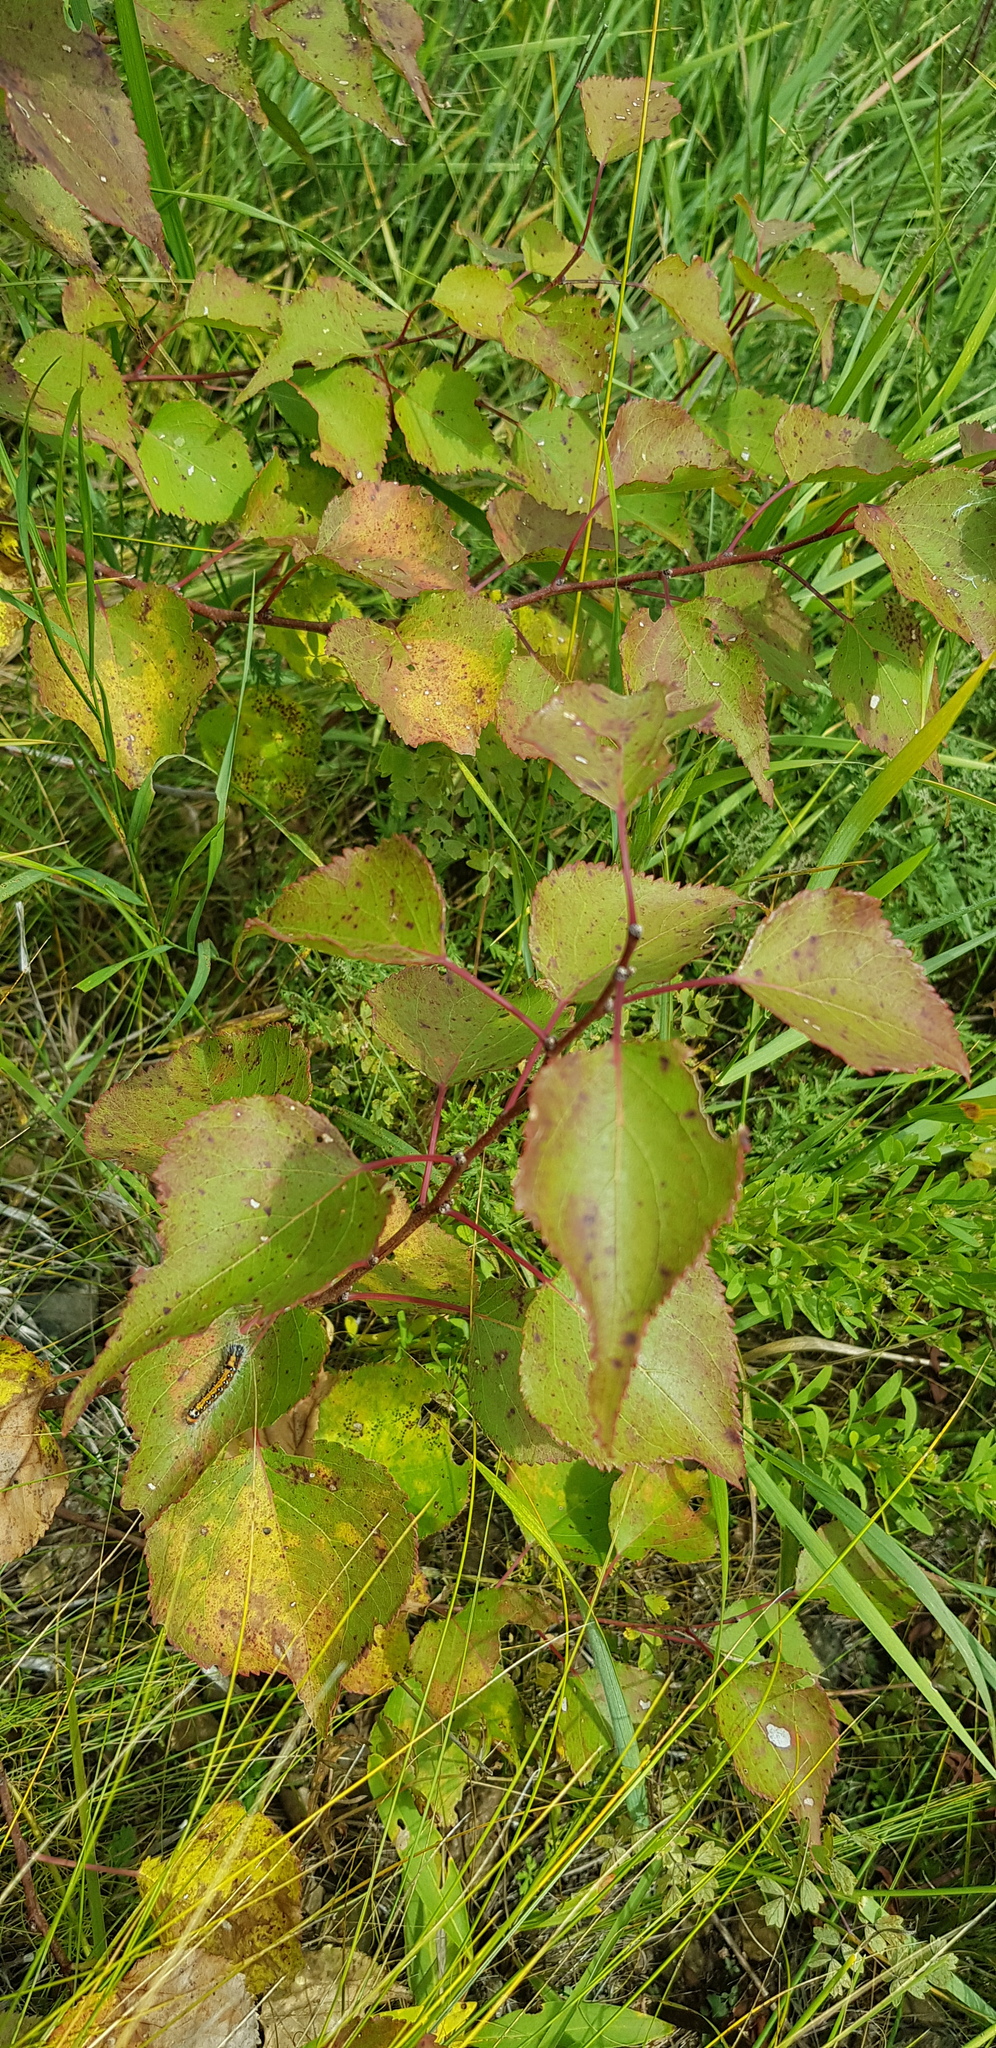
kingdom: Plantae
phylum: Tracheophyta
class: Magnoliopsida
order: Rosales
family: Rosaceae
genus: Prunus
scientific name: Prunus armeniaca
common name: Apricot
